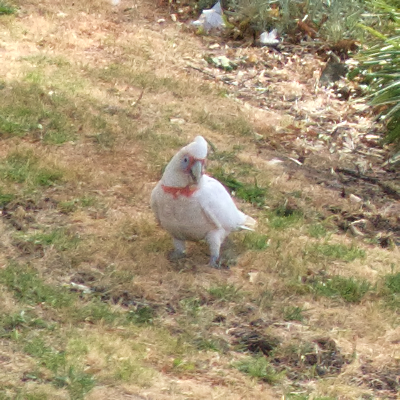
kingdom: Animalia
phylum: Chordata
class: Aves
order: Psittaciformes
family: Psittacidae
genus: Cacatua
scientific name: Cacatua tenuirostris
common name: Long-billed corella
